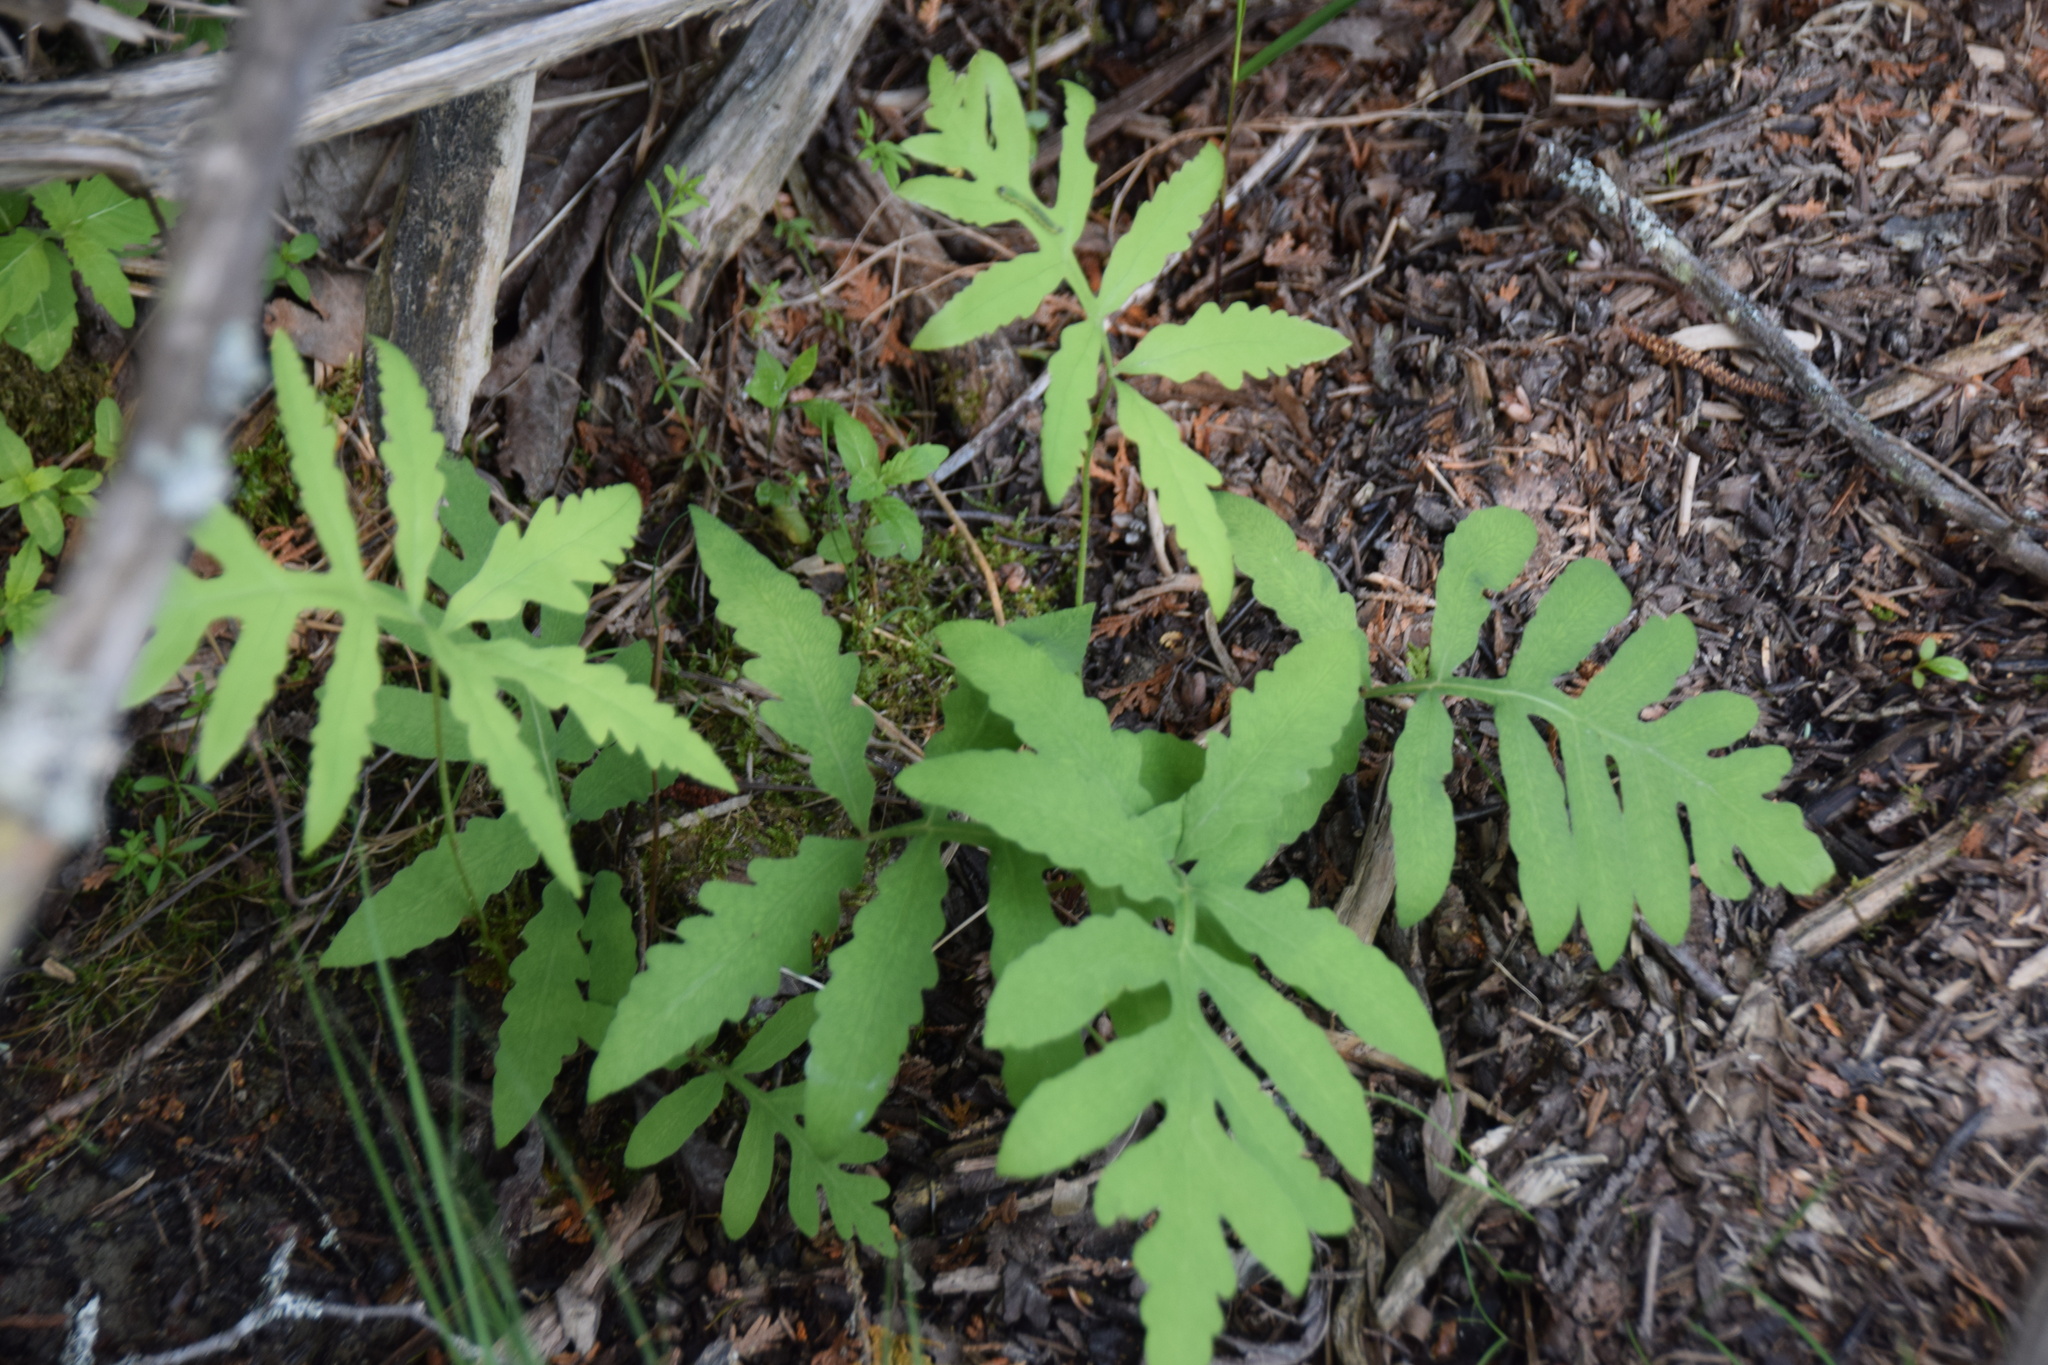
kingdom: Plantae
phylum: Tracheophyta
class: Polypodiopsida
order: Polypodiales
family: Onocleaceae
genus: Onoclea
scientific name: Onoclea sensibilis
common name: Sensitive fern
